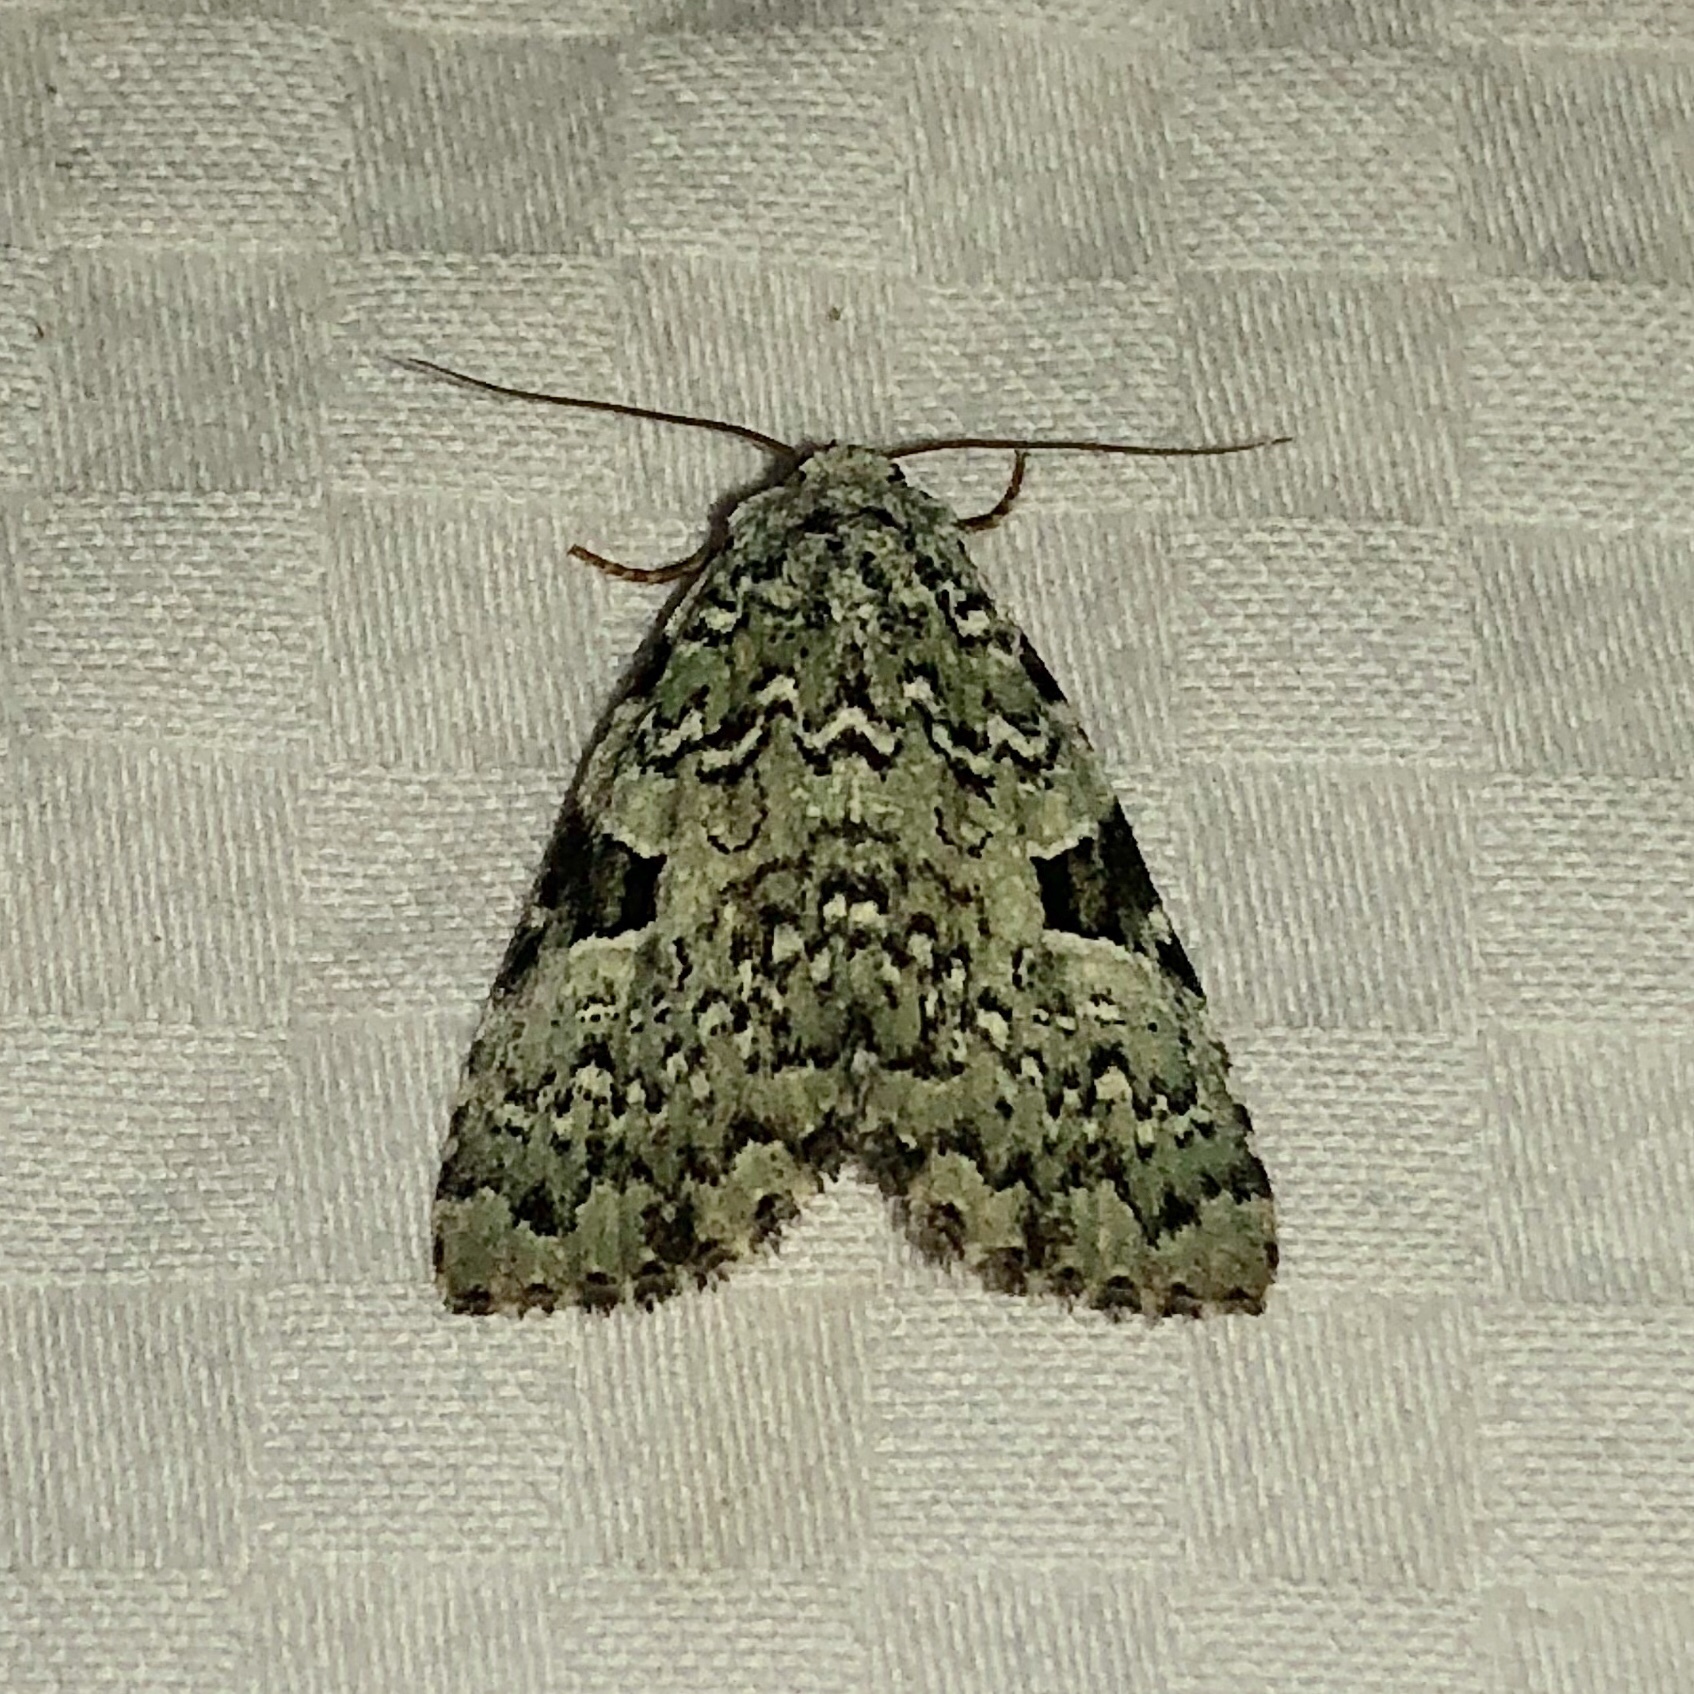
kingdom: Animalia
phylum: Arthropoda
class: Insecta
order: Lepidoptera
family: Noctuidae
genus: Leuconycta
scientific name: Leuconycta diphteroides
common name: Green leuconycta moth
